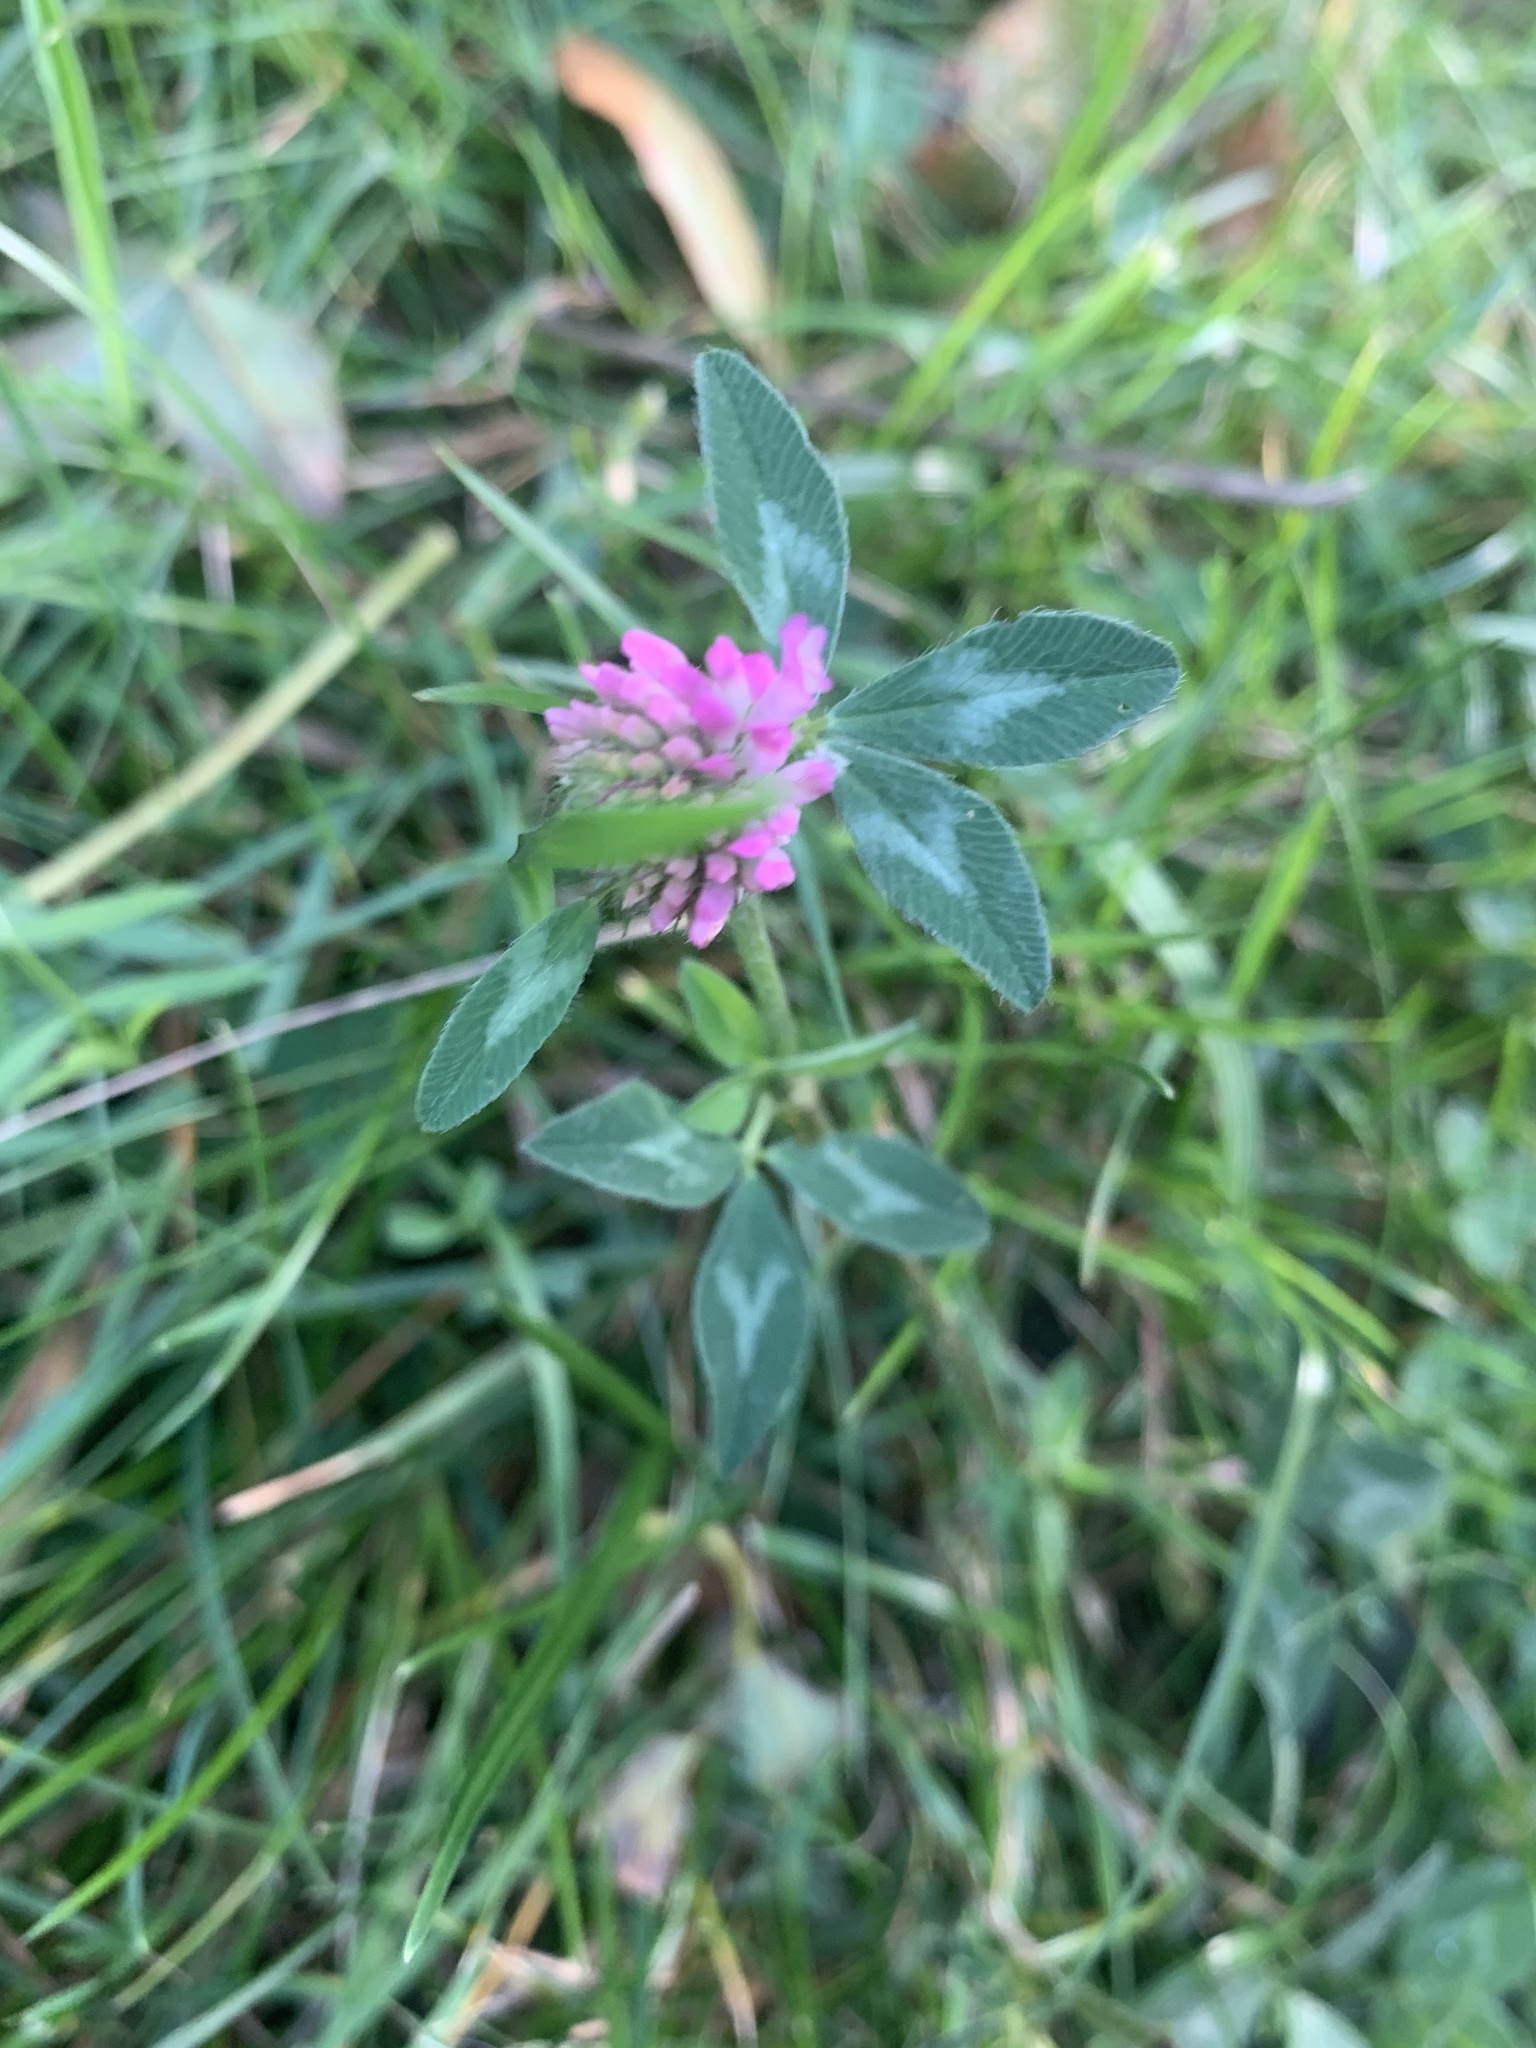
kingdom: Plantae
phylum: Tracheophyta
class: Magnoliopsida
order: Fabales
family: Fabaceae
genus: Trifolium
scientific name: Trifolium pratense
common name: Red clover
